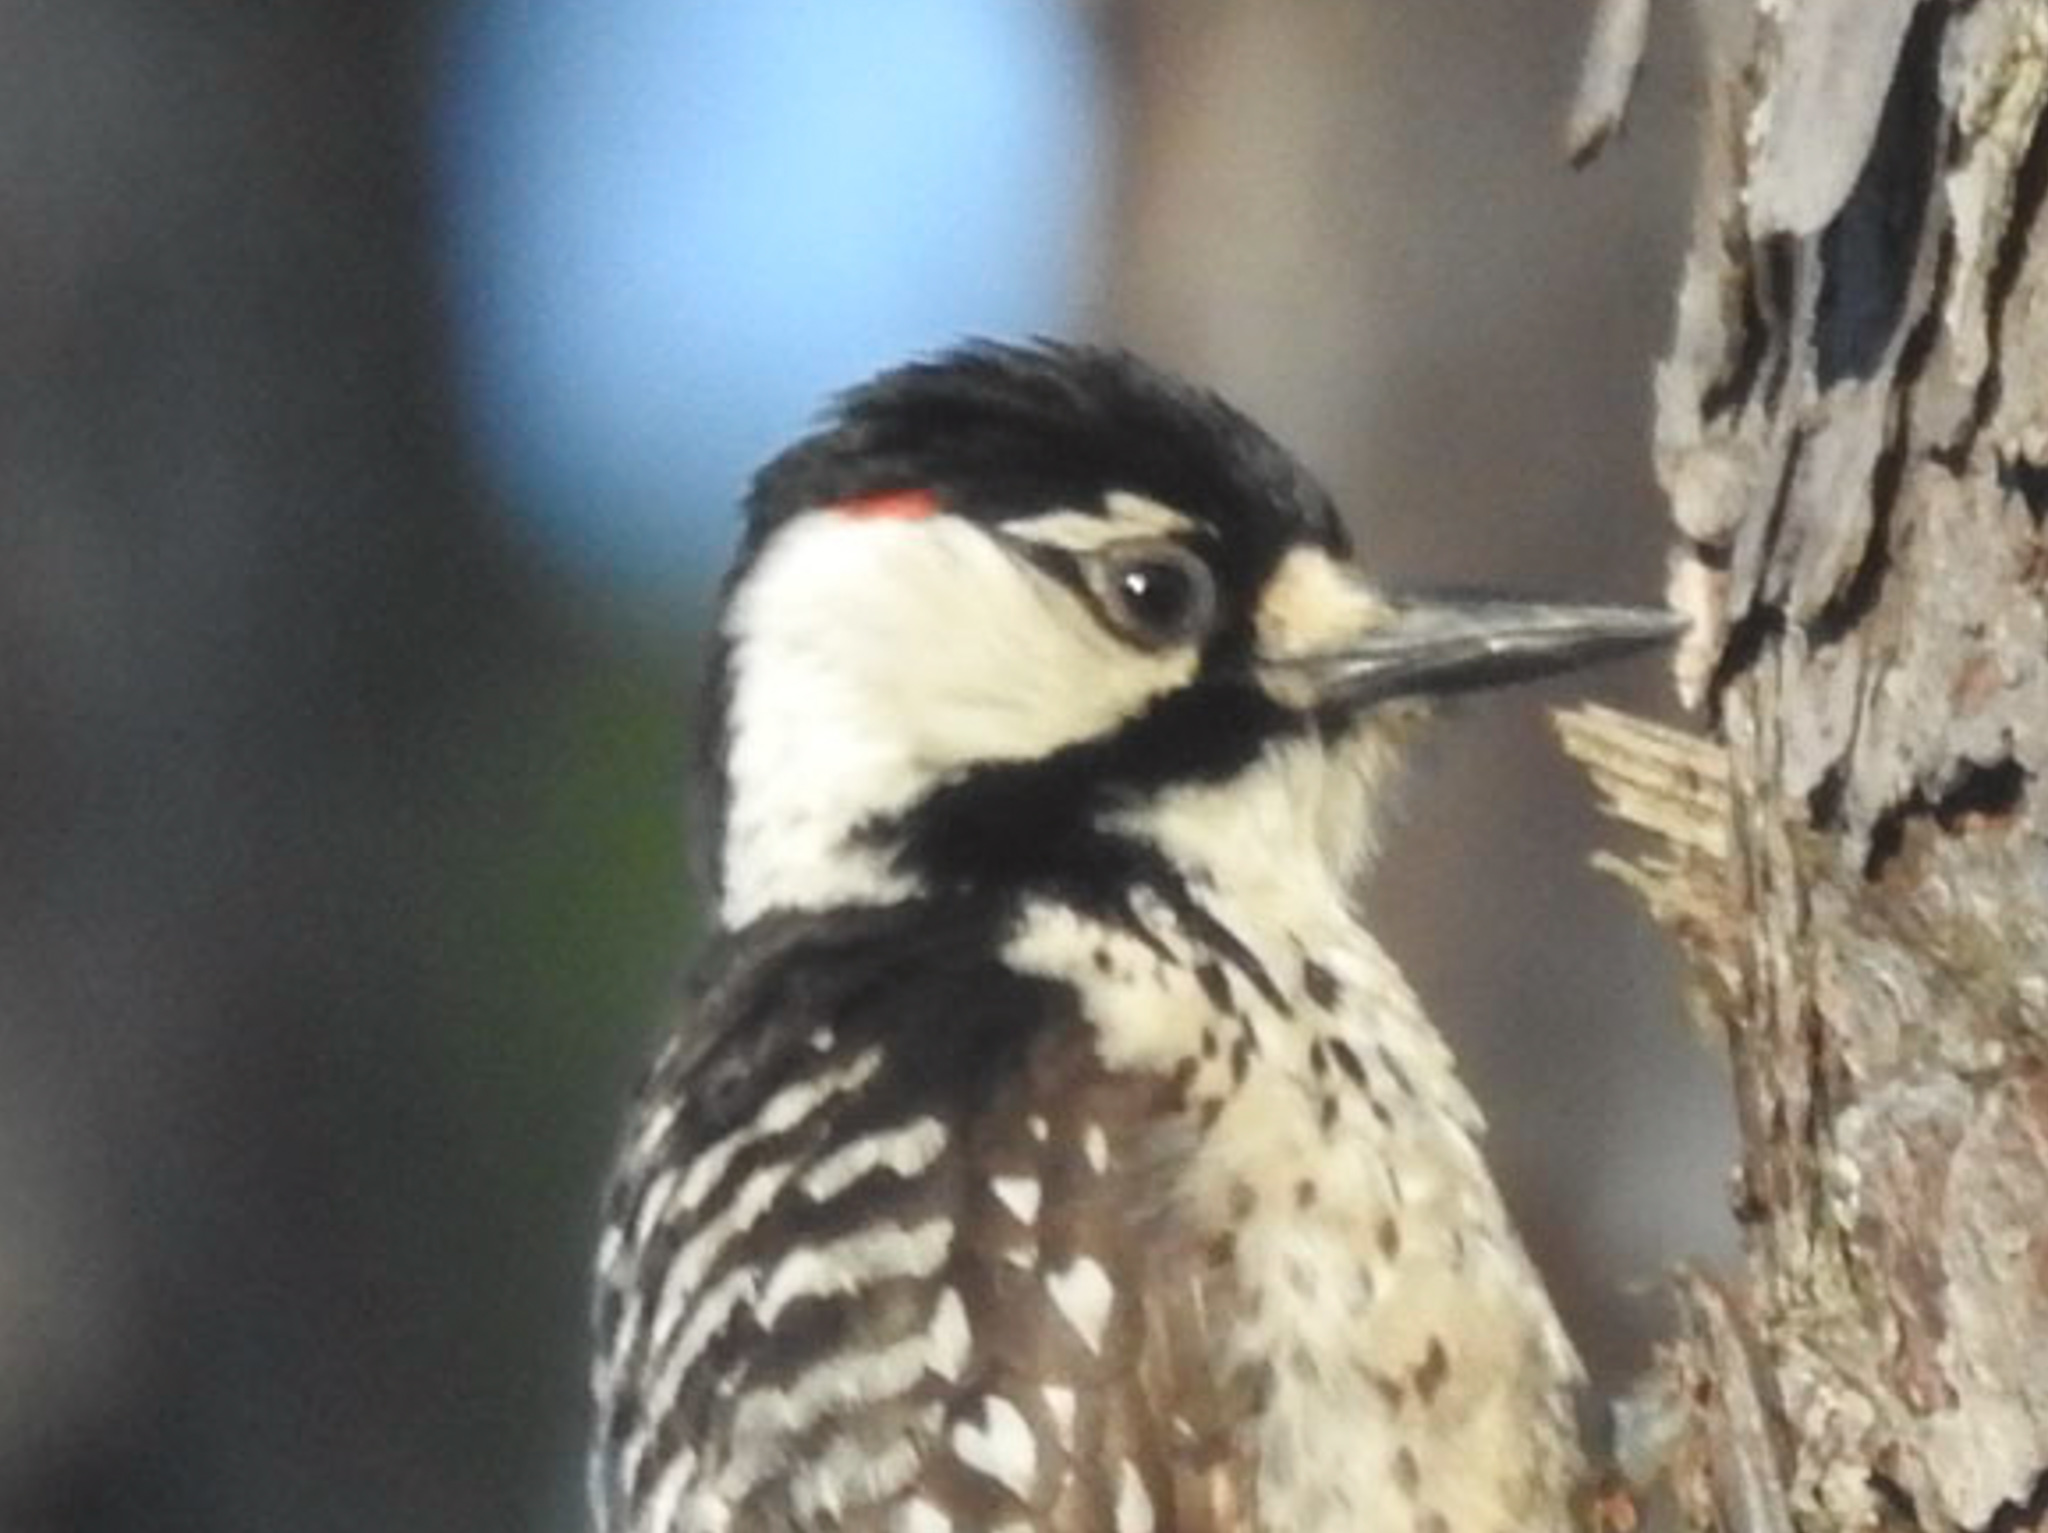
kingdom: Animalia
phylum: Chordata
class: Aves
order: Piciformes
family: Picidae
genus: Leuconotopicus
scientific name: Leuconotopicus borealis
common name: Red-cockaded woodpecker
